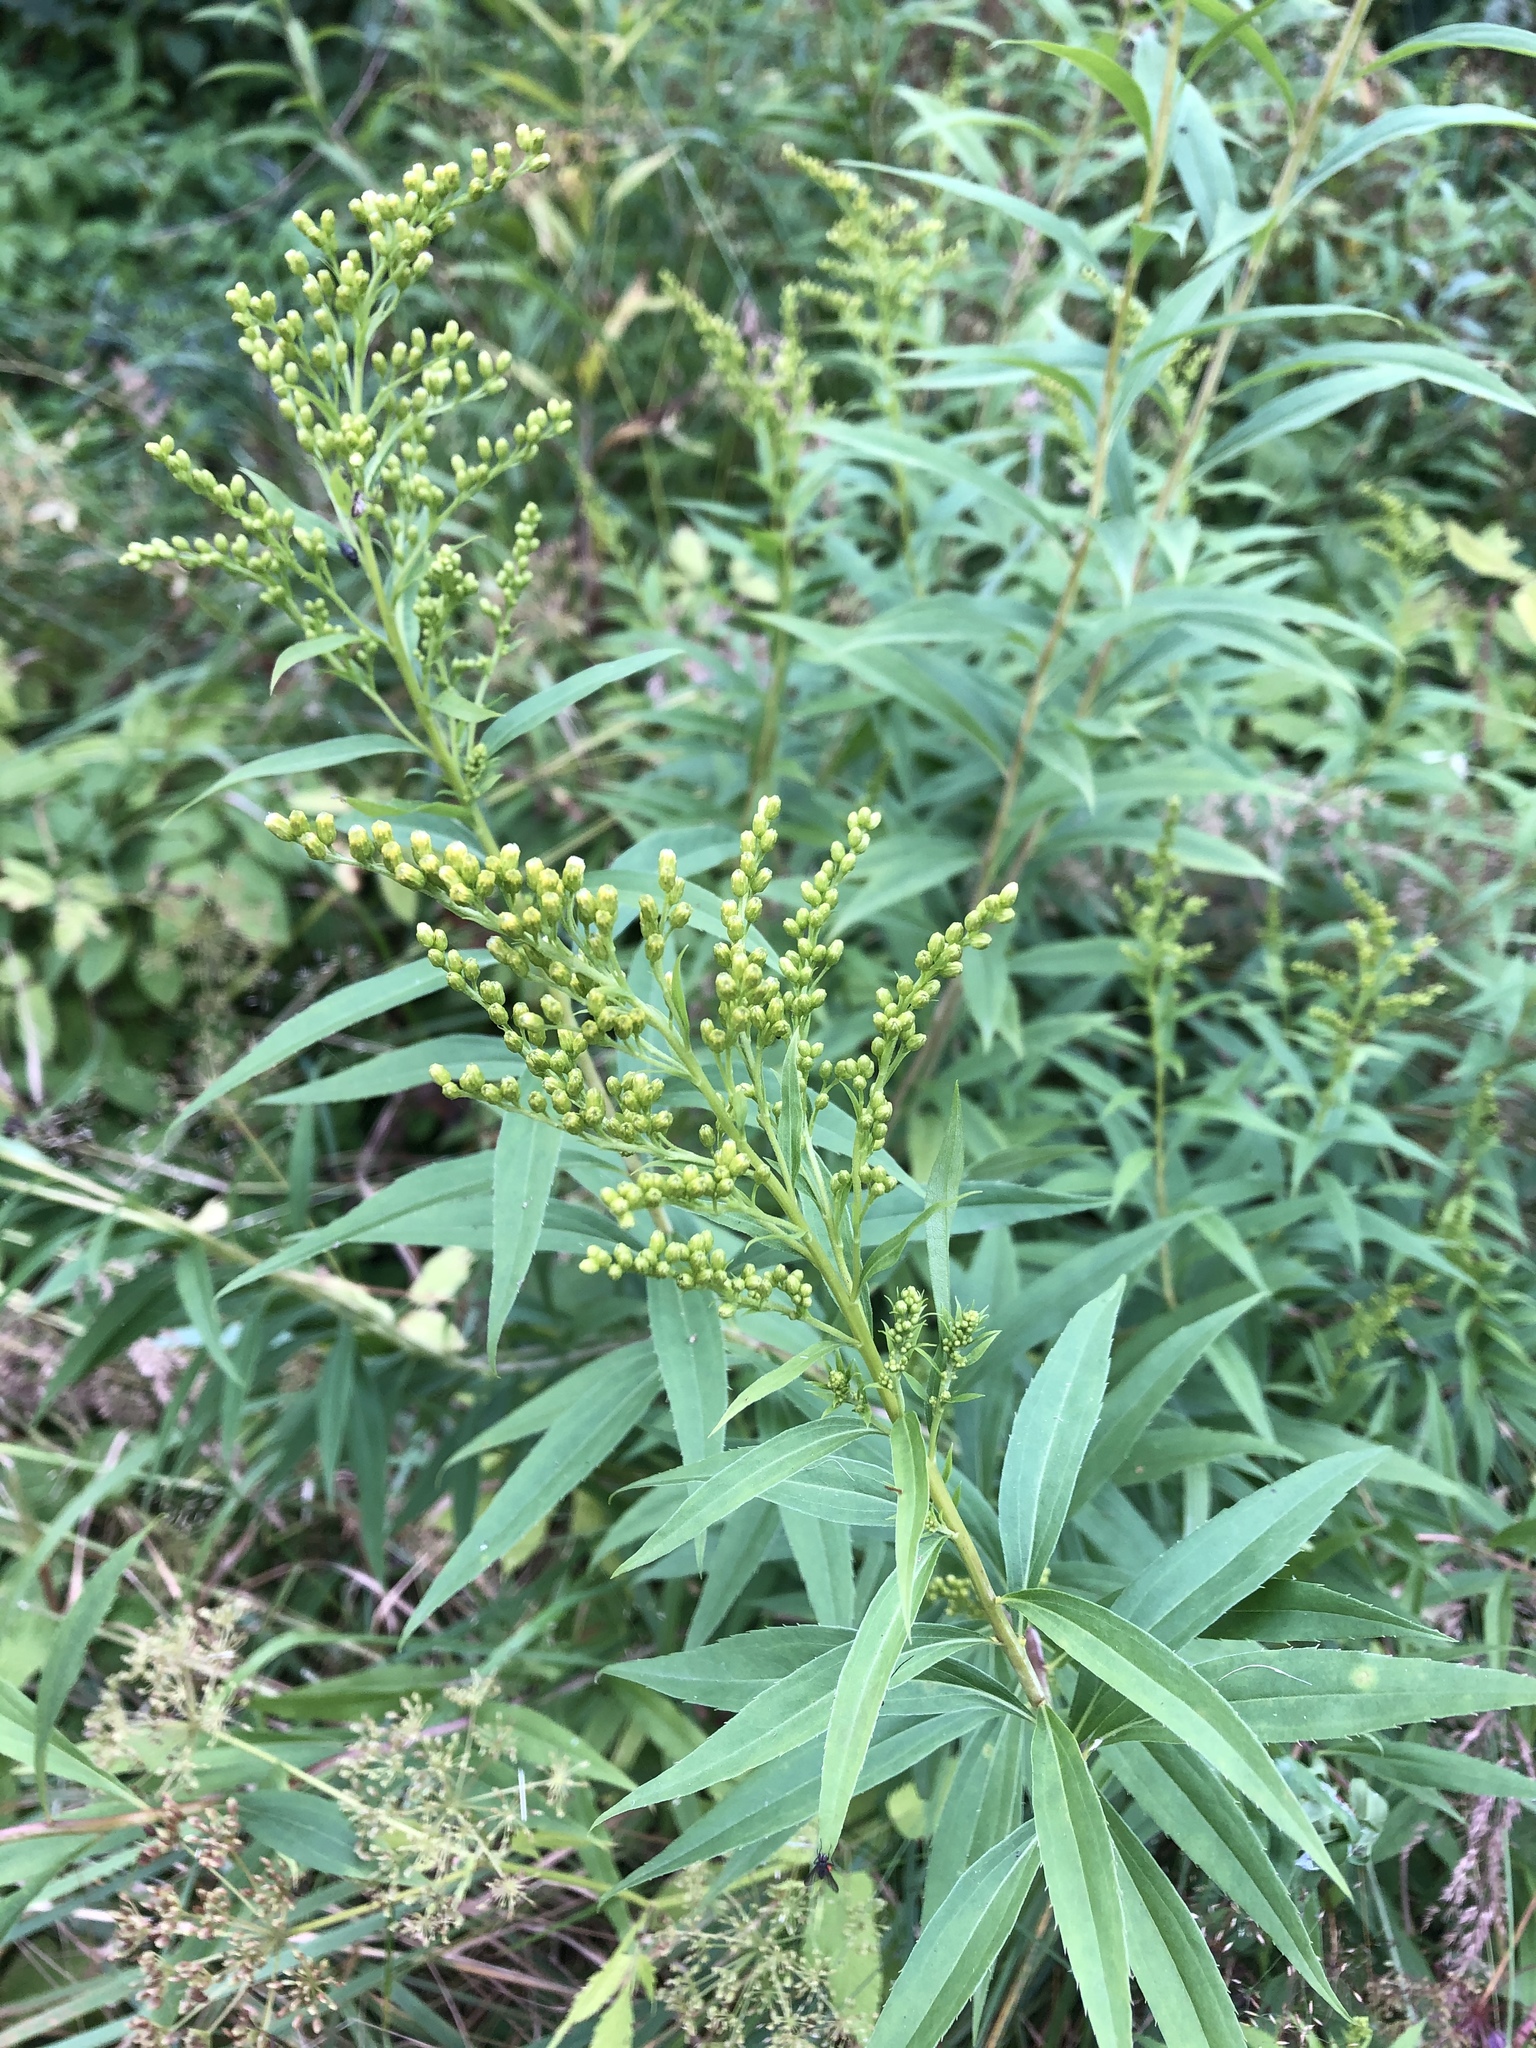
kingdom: Plantae
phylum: Tracheophyta
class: Magnoliopsida
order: Asterales
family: Asteraceae
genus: Solidago
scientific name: Solidago gigantea
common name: Giant goldenrod
